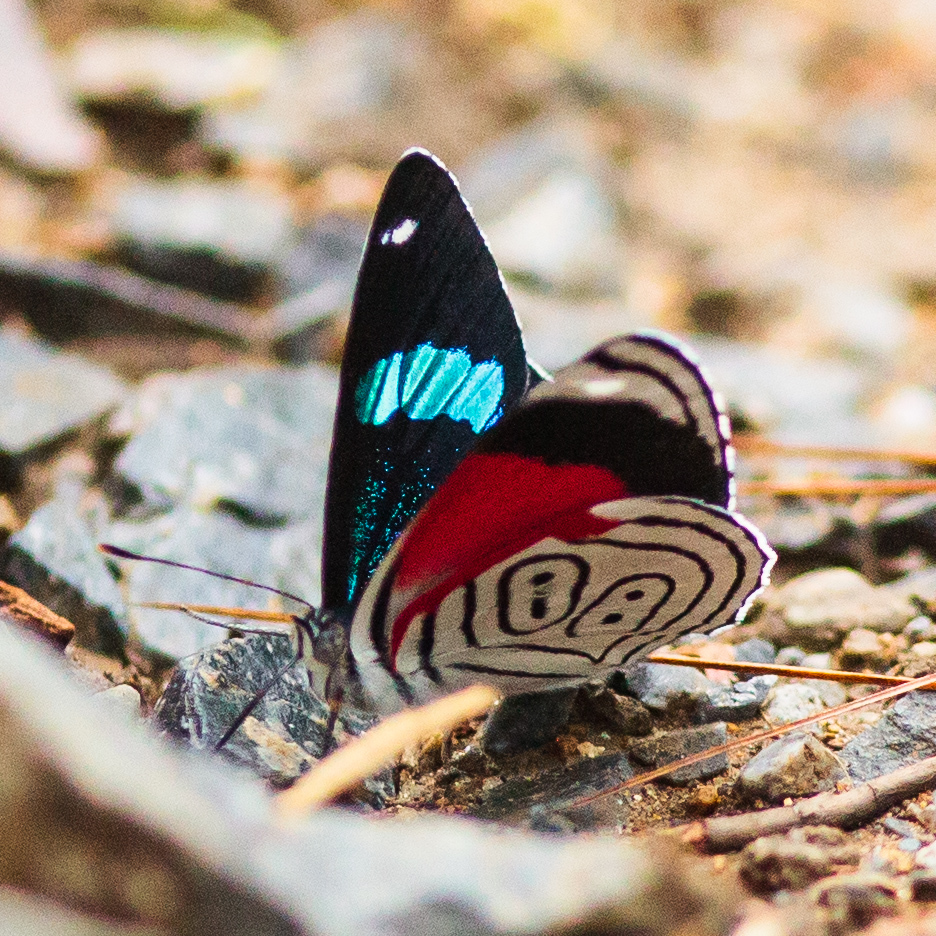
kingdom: Animalia
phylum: Arthropoda
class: Insecta
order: Lepidoptera
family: Nymphalidae
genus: Diaethria
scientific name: Diaethria anna
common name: Anna’s eighty-eight
